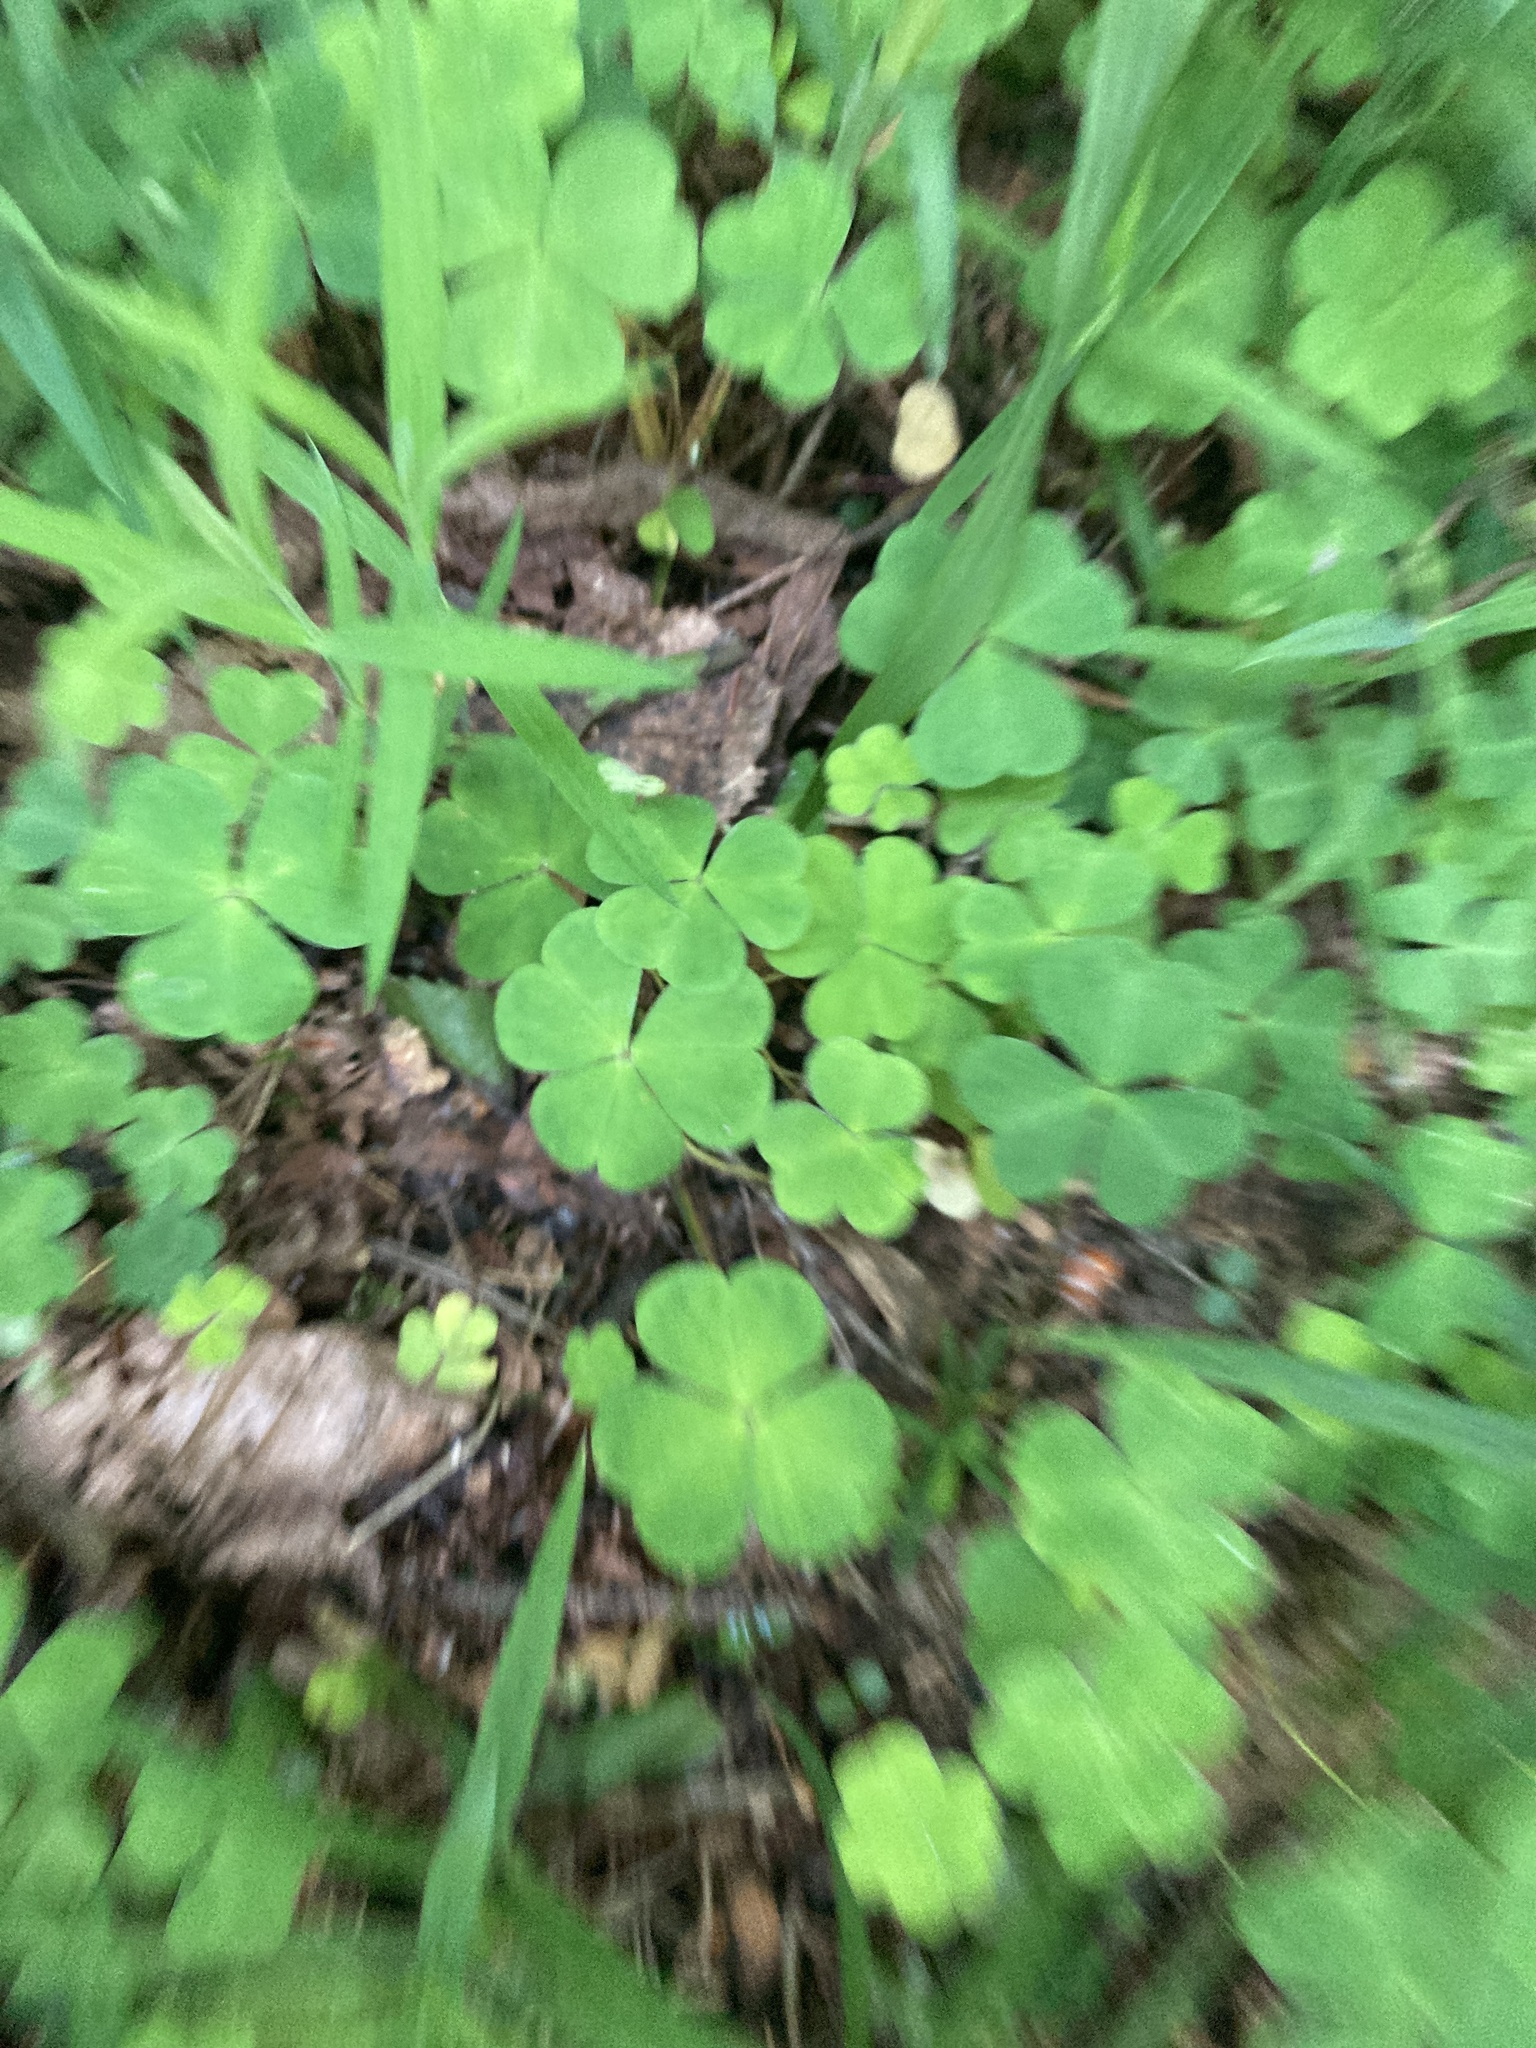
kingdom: Plantae
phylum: Tracheophyta
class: Magnoliopsida
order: Oxalidales
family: Oxalidaceae
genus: Oxalis
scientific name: Oxalis acetosella
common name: Wood-sorrel
